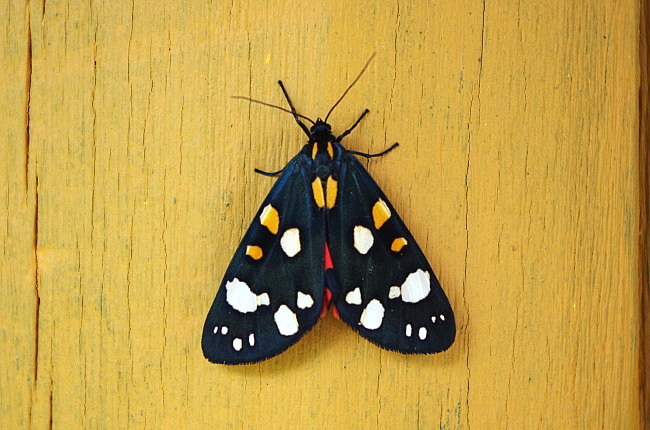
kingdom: Animalia
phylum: Arthropoda
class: Insecta
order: Lepidoptera
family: Erebidae
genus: Callimorpha
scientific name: Callimorpha dominula
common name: Scarlet tiger
